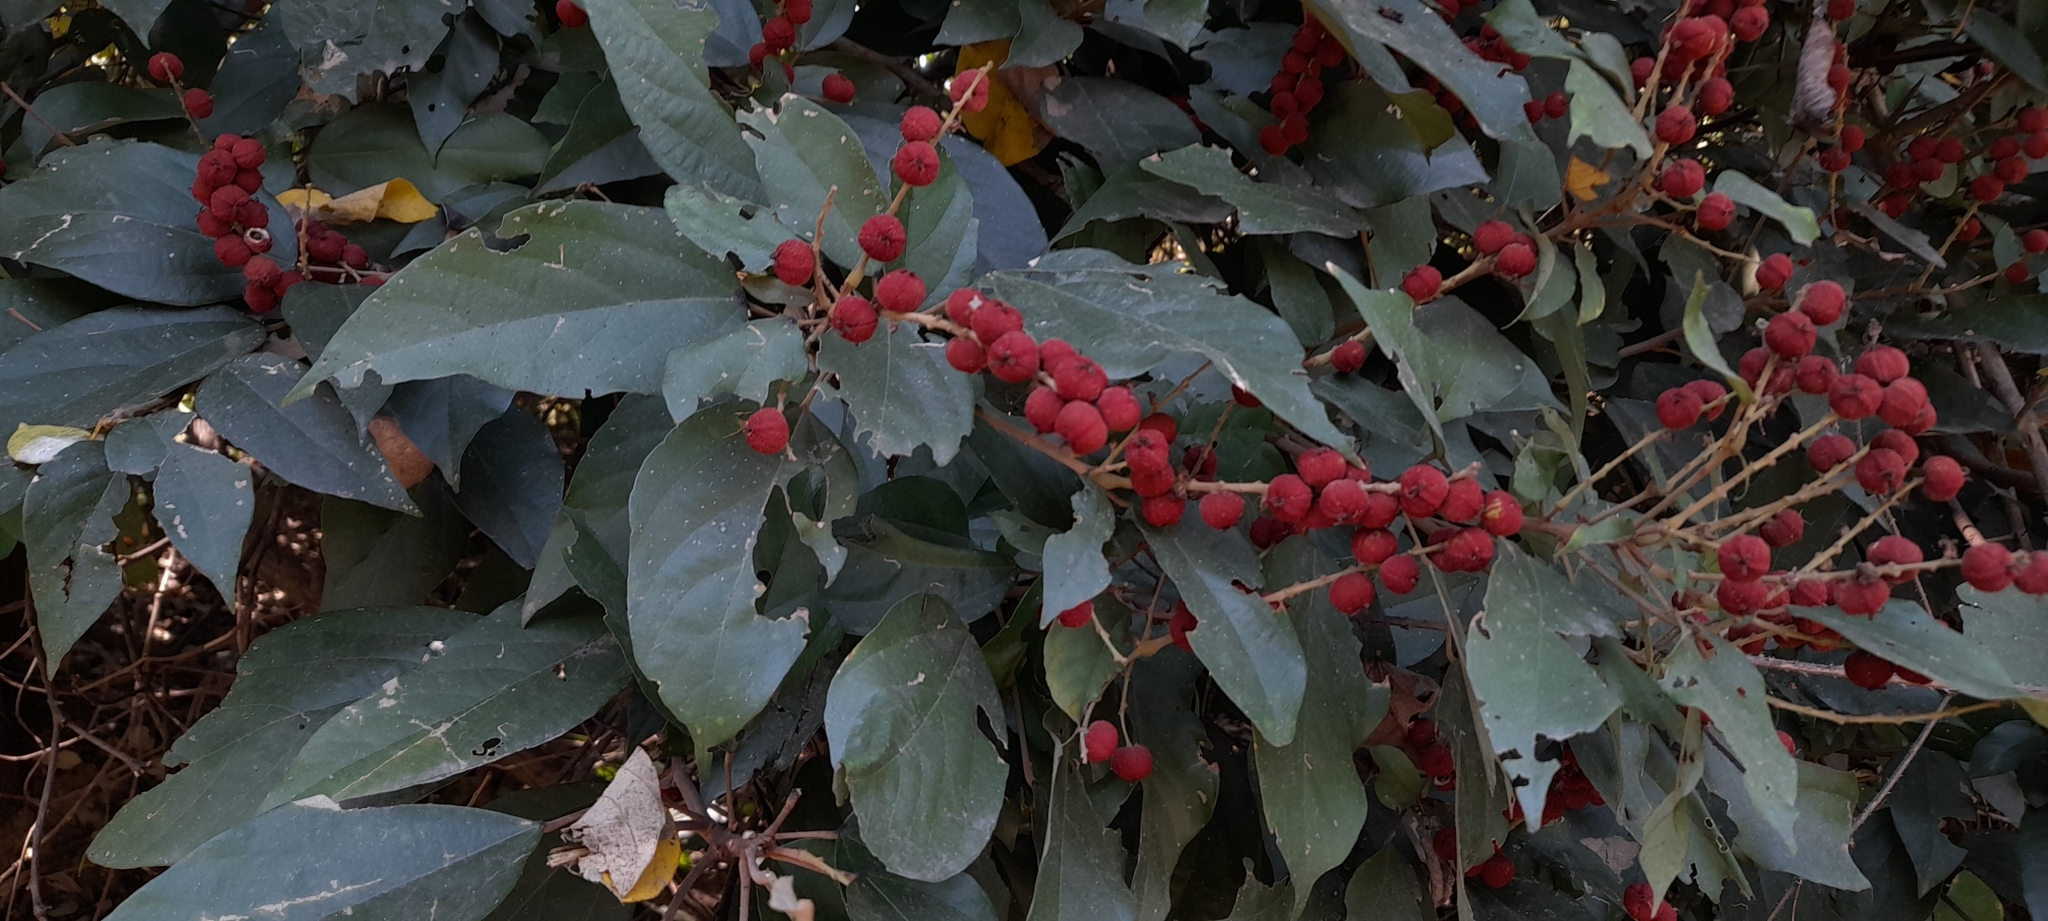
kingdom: Plantae
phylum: Tracheophyta
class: Magnoliopsida
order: Malpighiales
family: Euphorbiaceae
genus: Mallotus
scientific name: Mallotus philippensis
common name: Kamala tree
